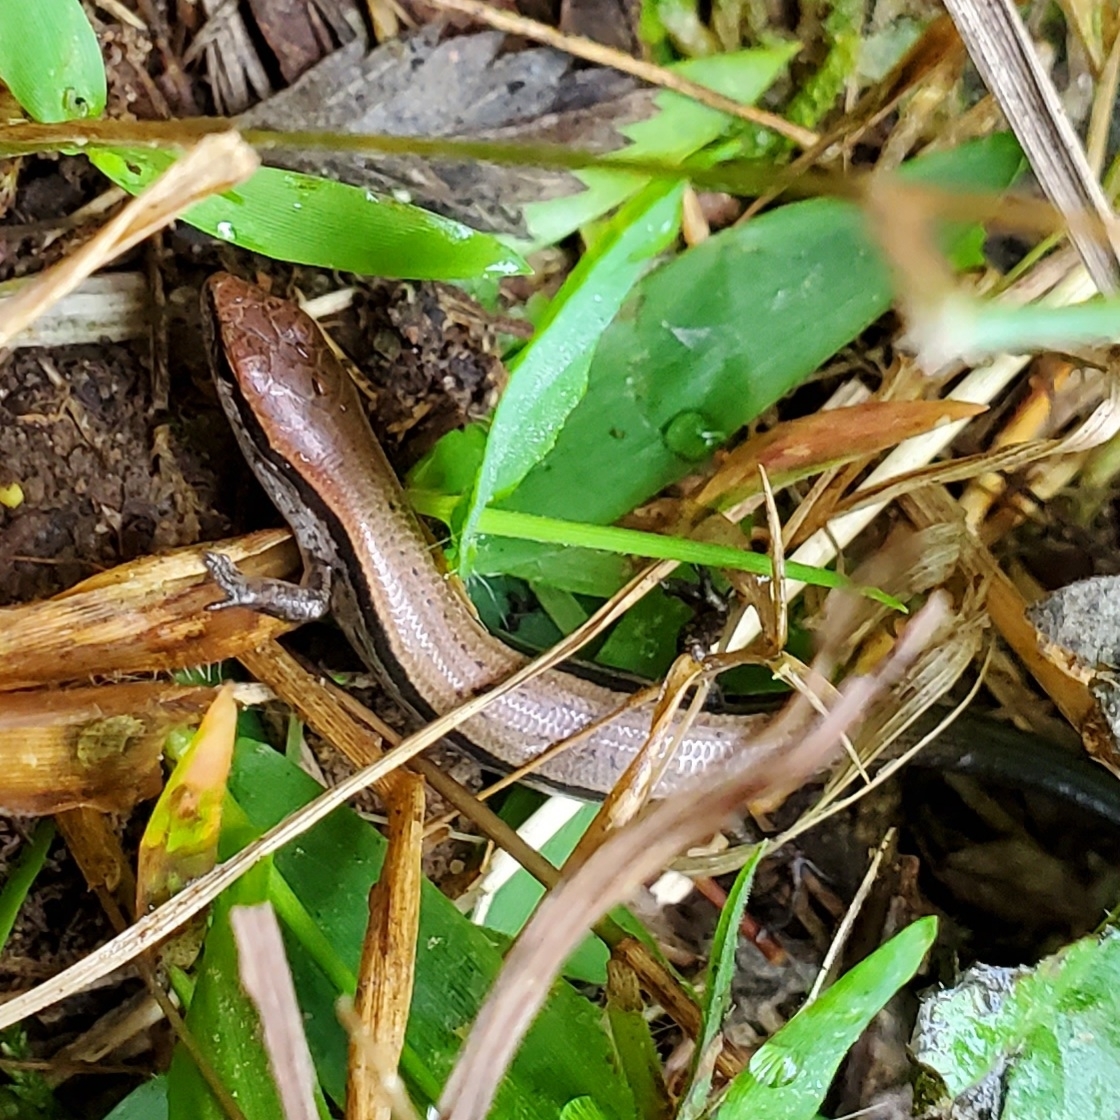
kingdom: Animalia
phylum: Chordata
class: Squamata
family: Scincidae
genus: Scincella
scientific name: Scincella lateralis
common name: Ground skink
